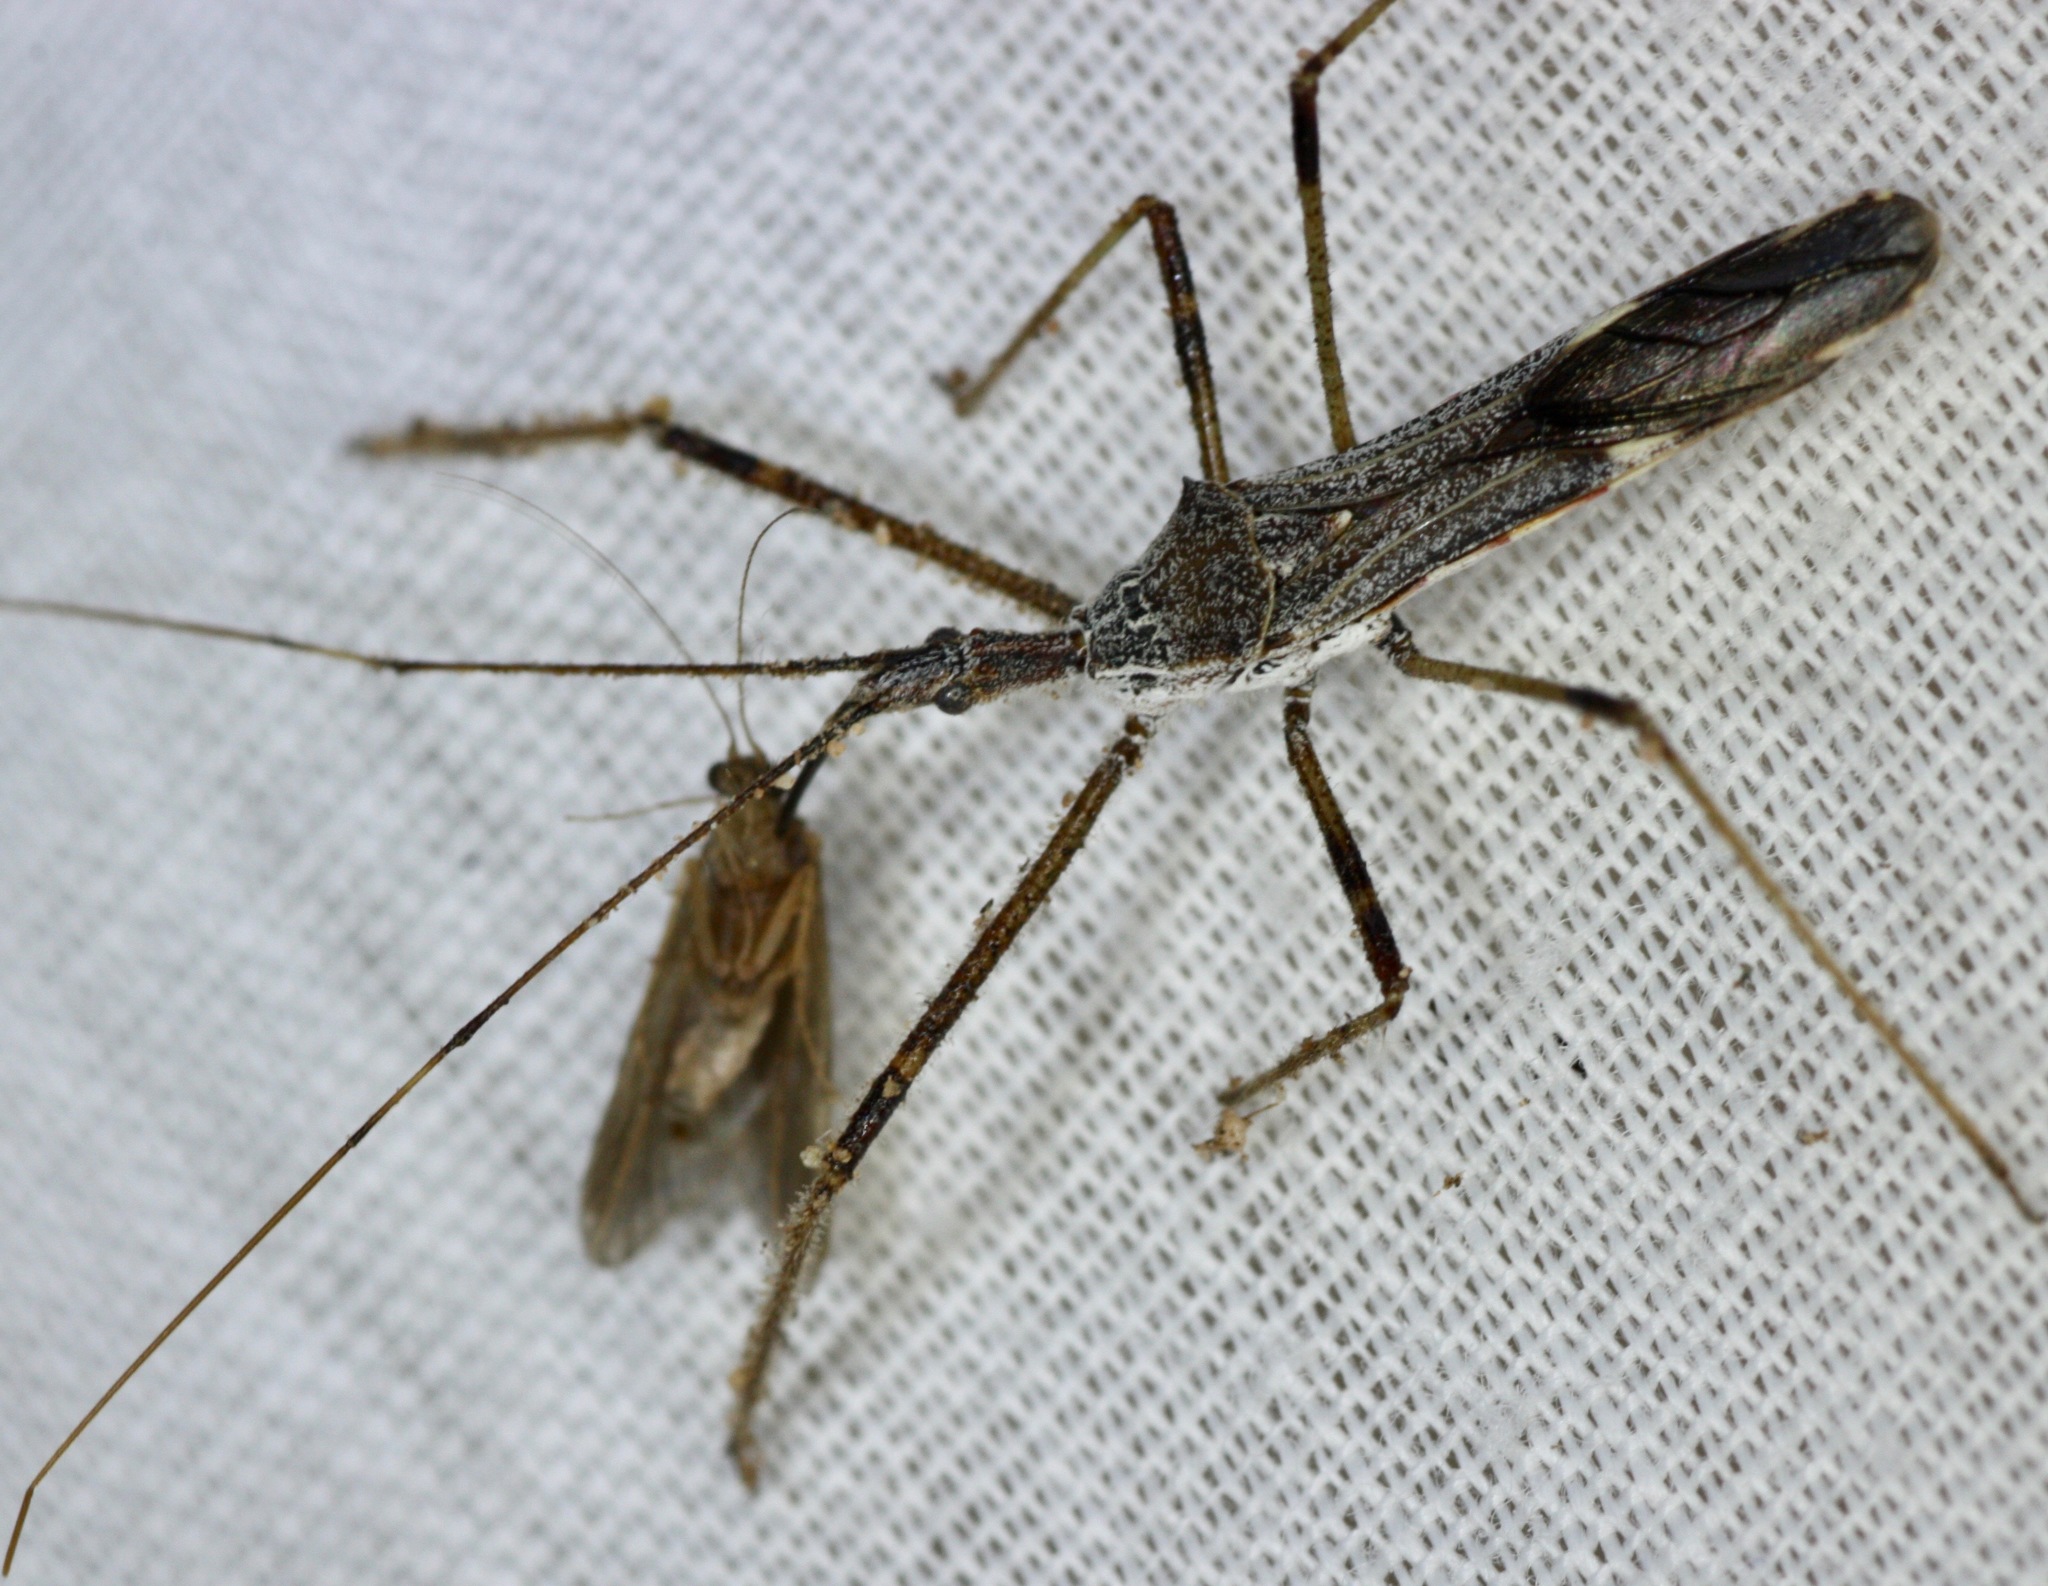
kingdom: Animalia
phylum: Arthropoda
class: Insecta
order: Hemiptera
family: Reduviidae
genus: Zelus
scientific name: Zelus tetracanthus
